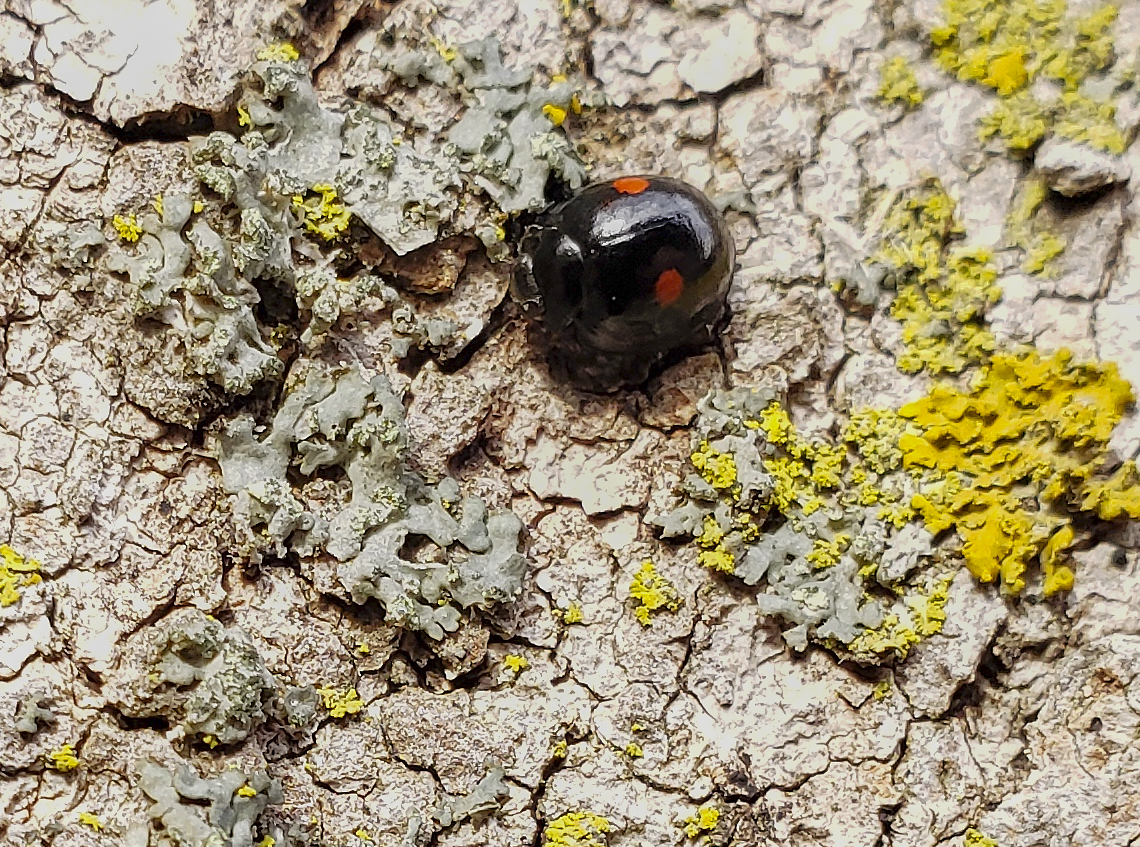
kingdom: Animalia
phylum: Arthropoda
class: Insecta
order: Coleoptera
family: Coccinellidae
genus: Chilocorus
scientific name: Chilocorus stigma
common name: Twicestabbed lady beetle
